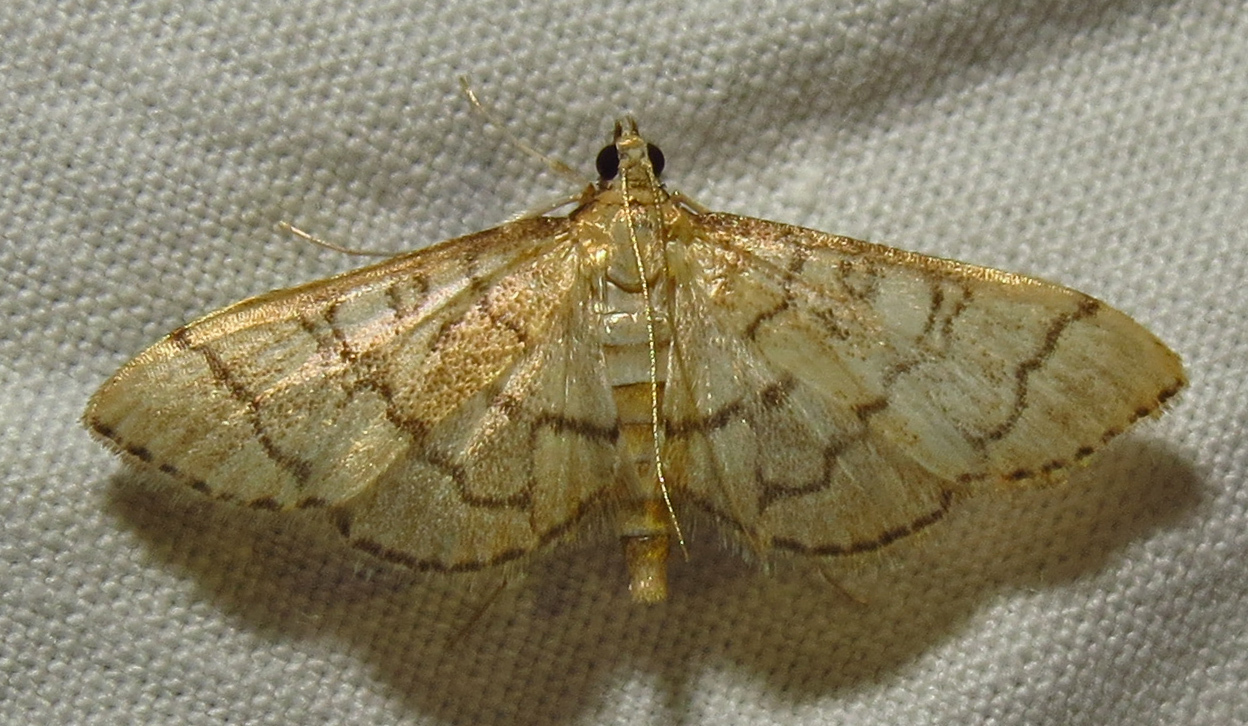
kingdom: Animalia
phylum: Arthropoda
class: Insecta
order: Lepidoptera
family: Crambidae
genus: Lamprosema
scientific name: Lamprosema Blepharomastix ranalis
